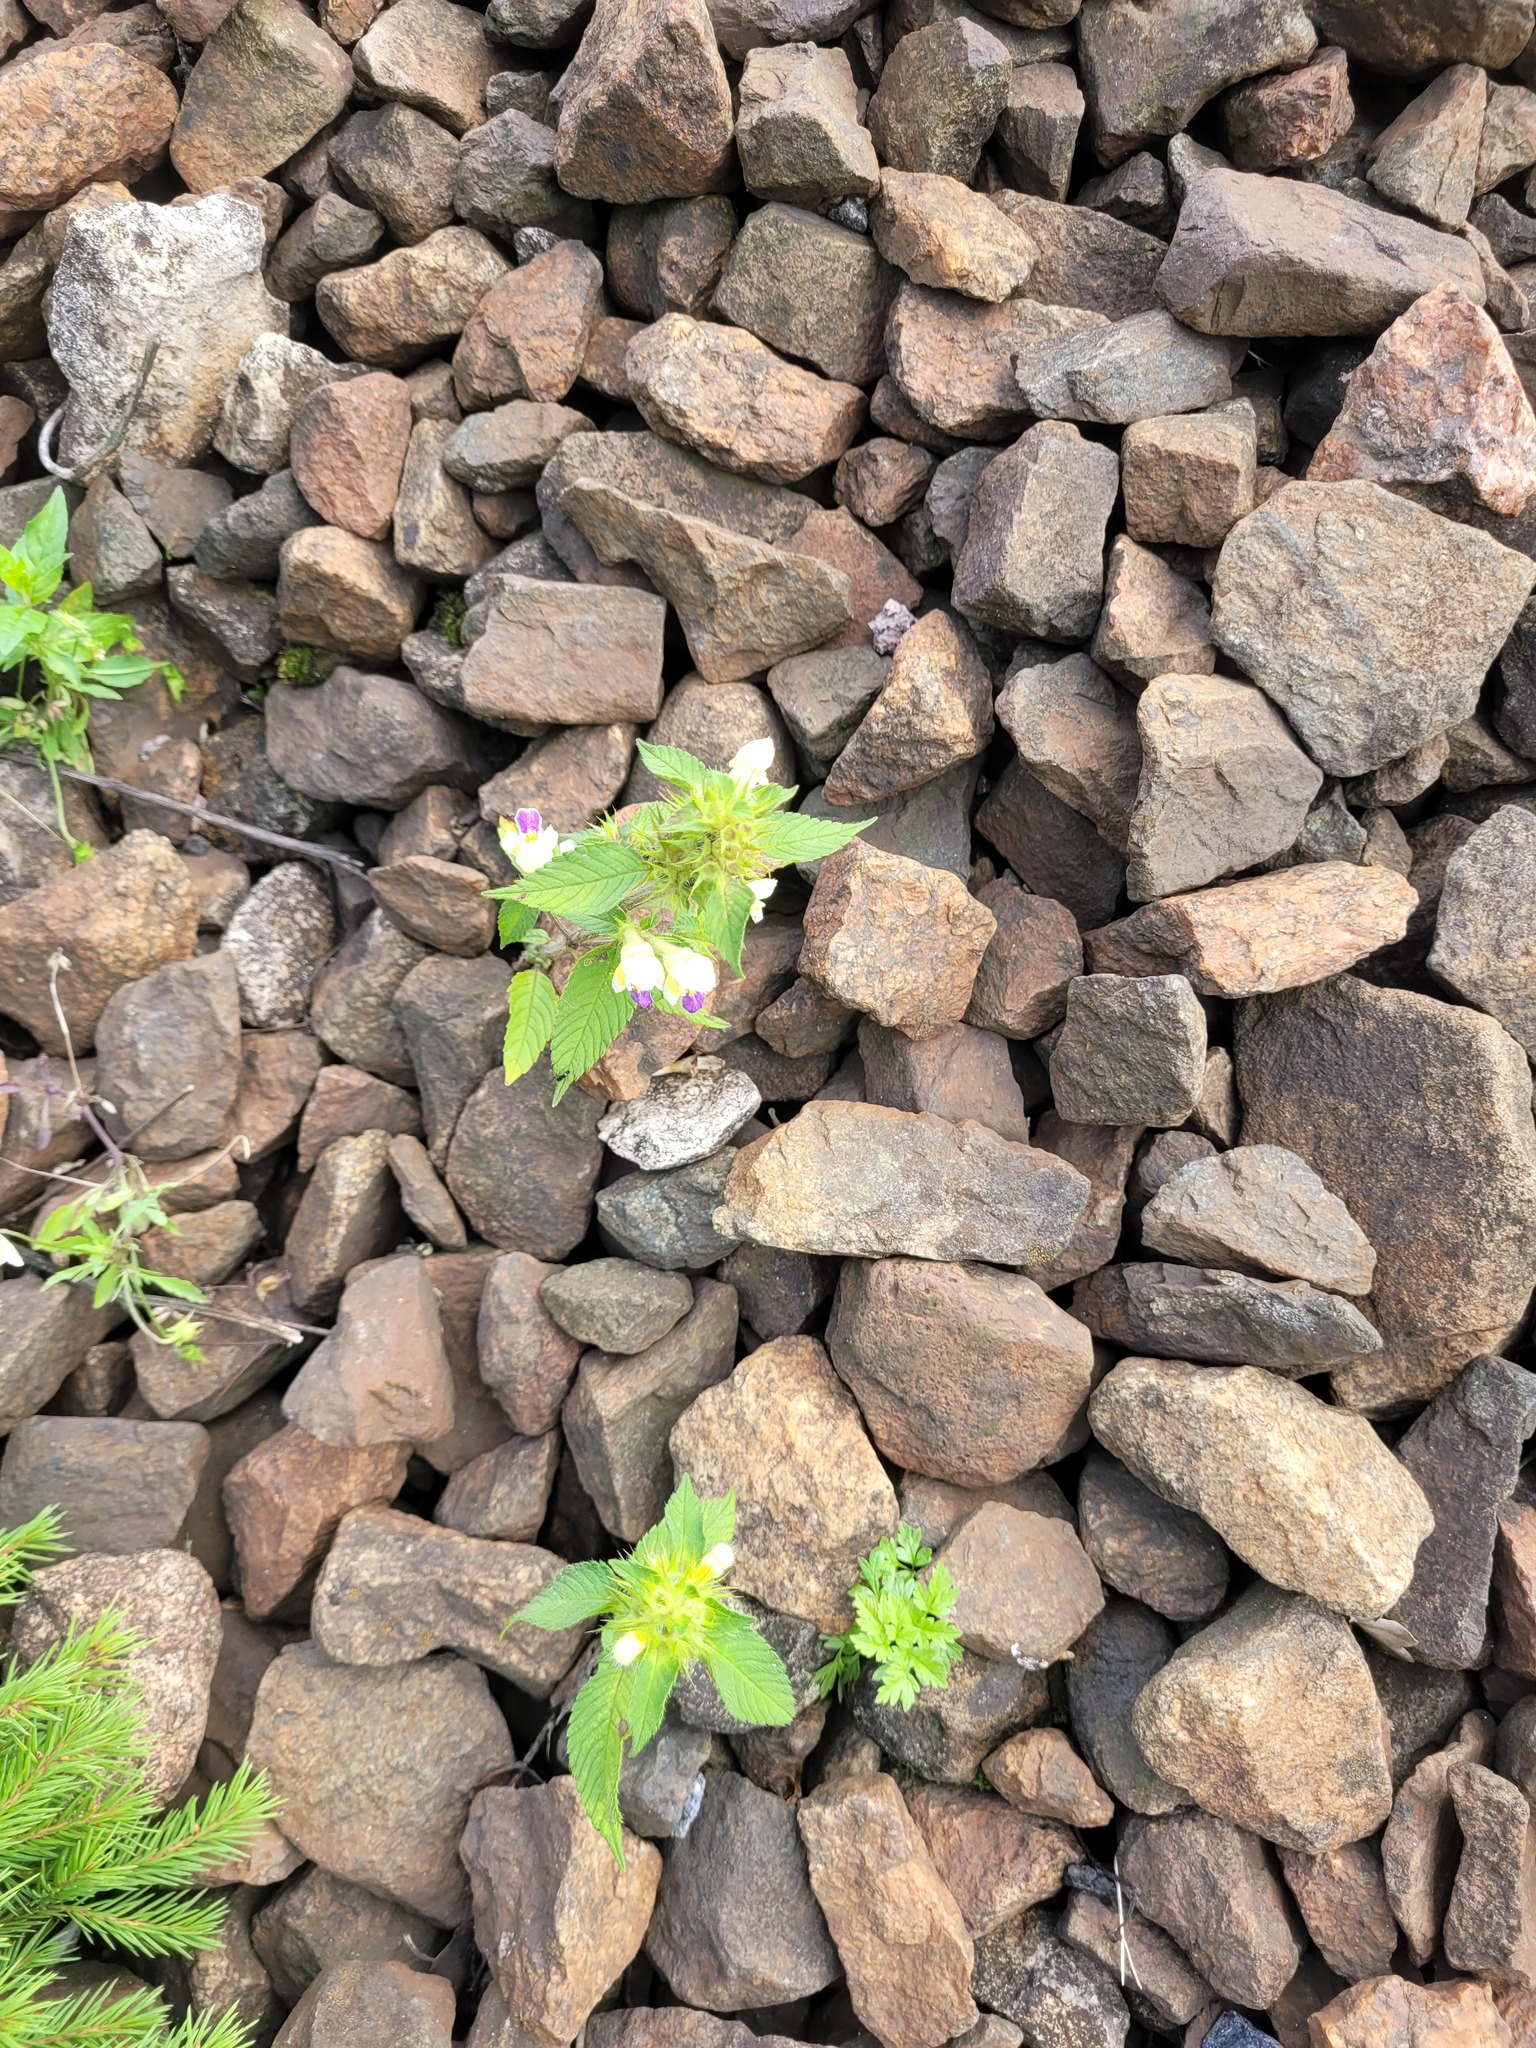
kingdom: Plantae
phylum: Tracheophyta
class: Magnoliopsida
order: Lamiales
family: Lamiaceae
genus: Galeopsis
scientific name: Galeopsis speciosa
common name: Large-flowered hemp-nettle
